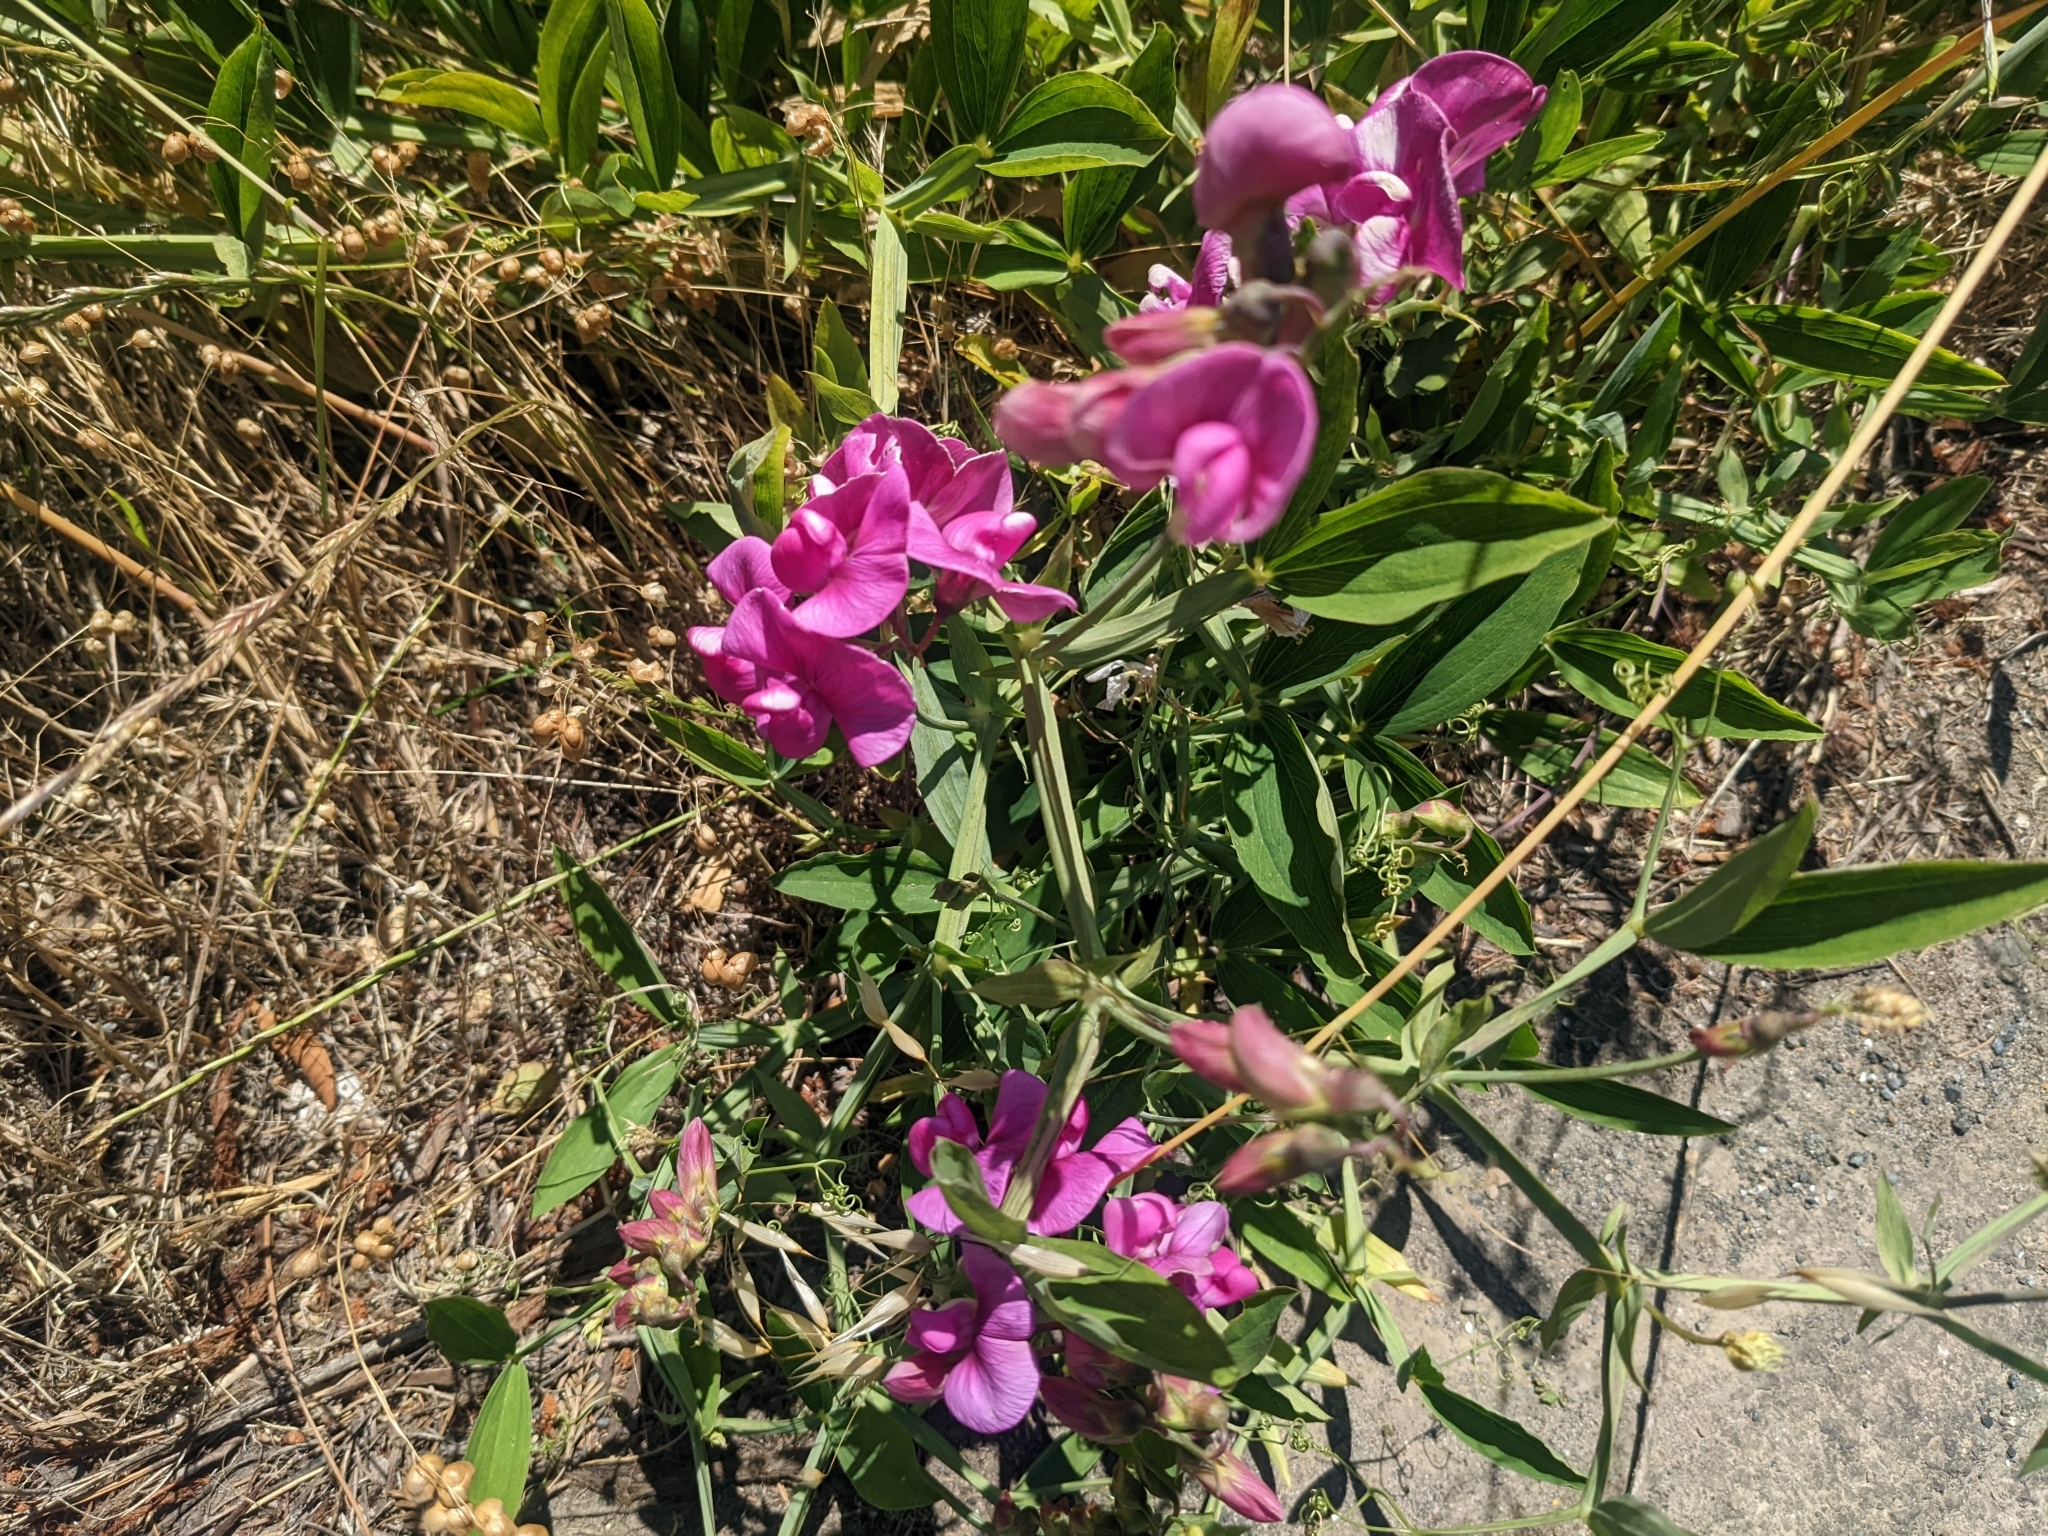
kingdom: Plantae
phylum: Tracheophyta
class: Magnoliopsida
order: Fabales
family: Fabaceae
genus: Lathyrus
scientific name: Lathyrus latifolius
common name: Perennial pea
